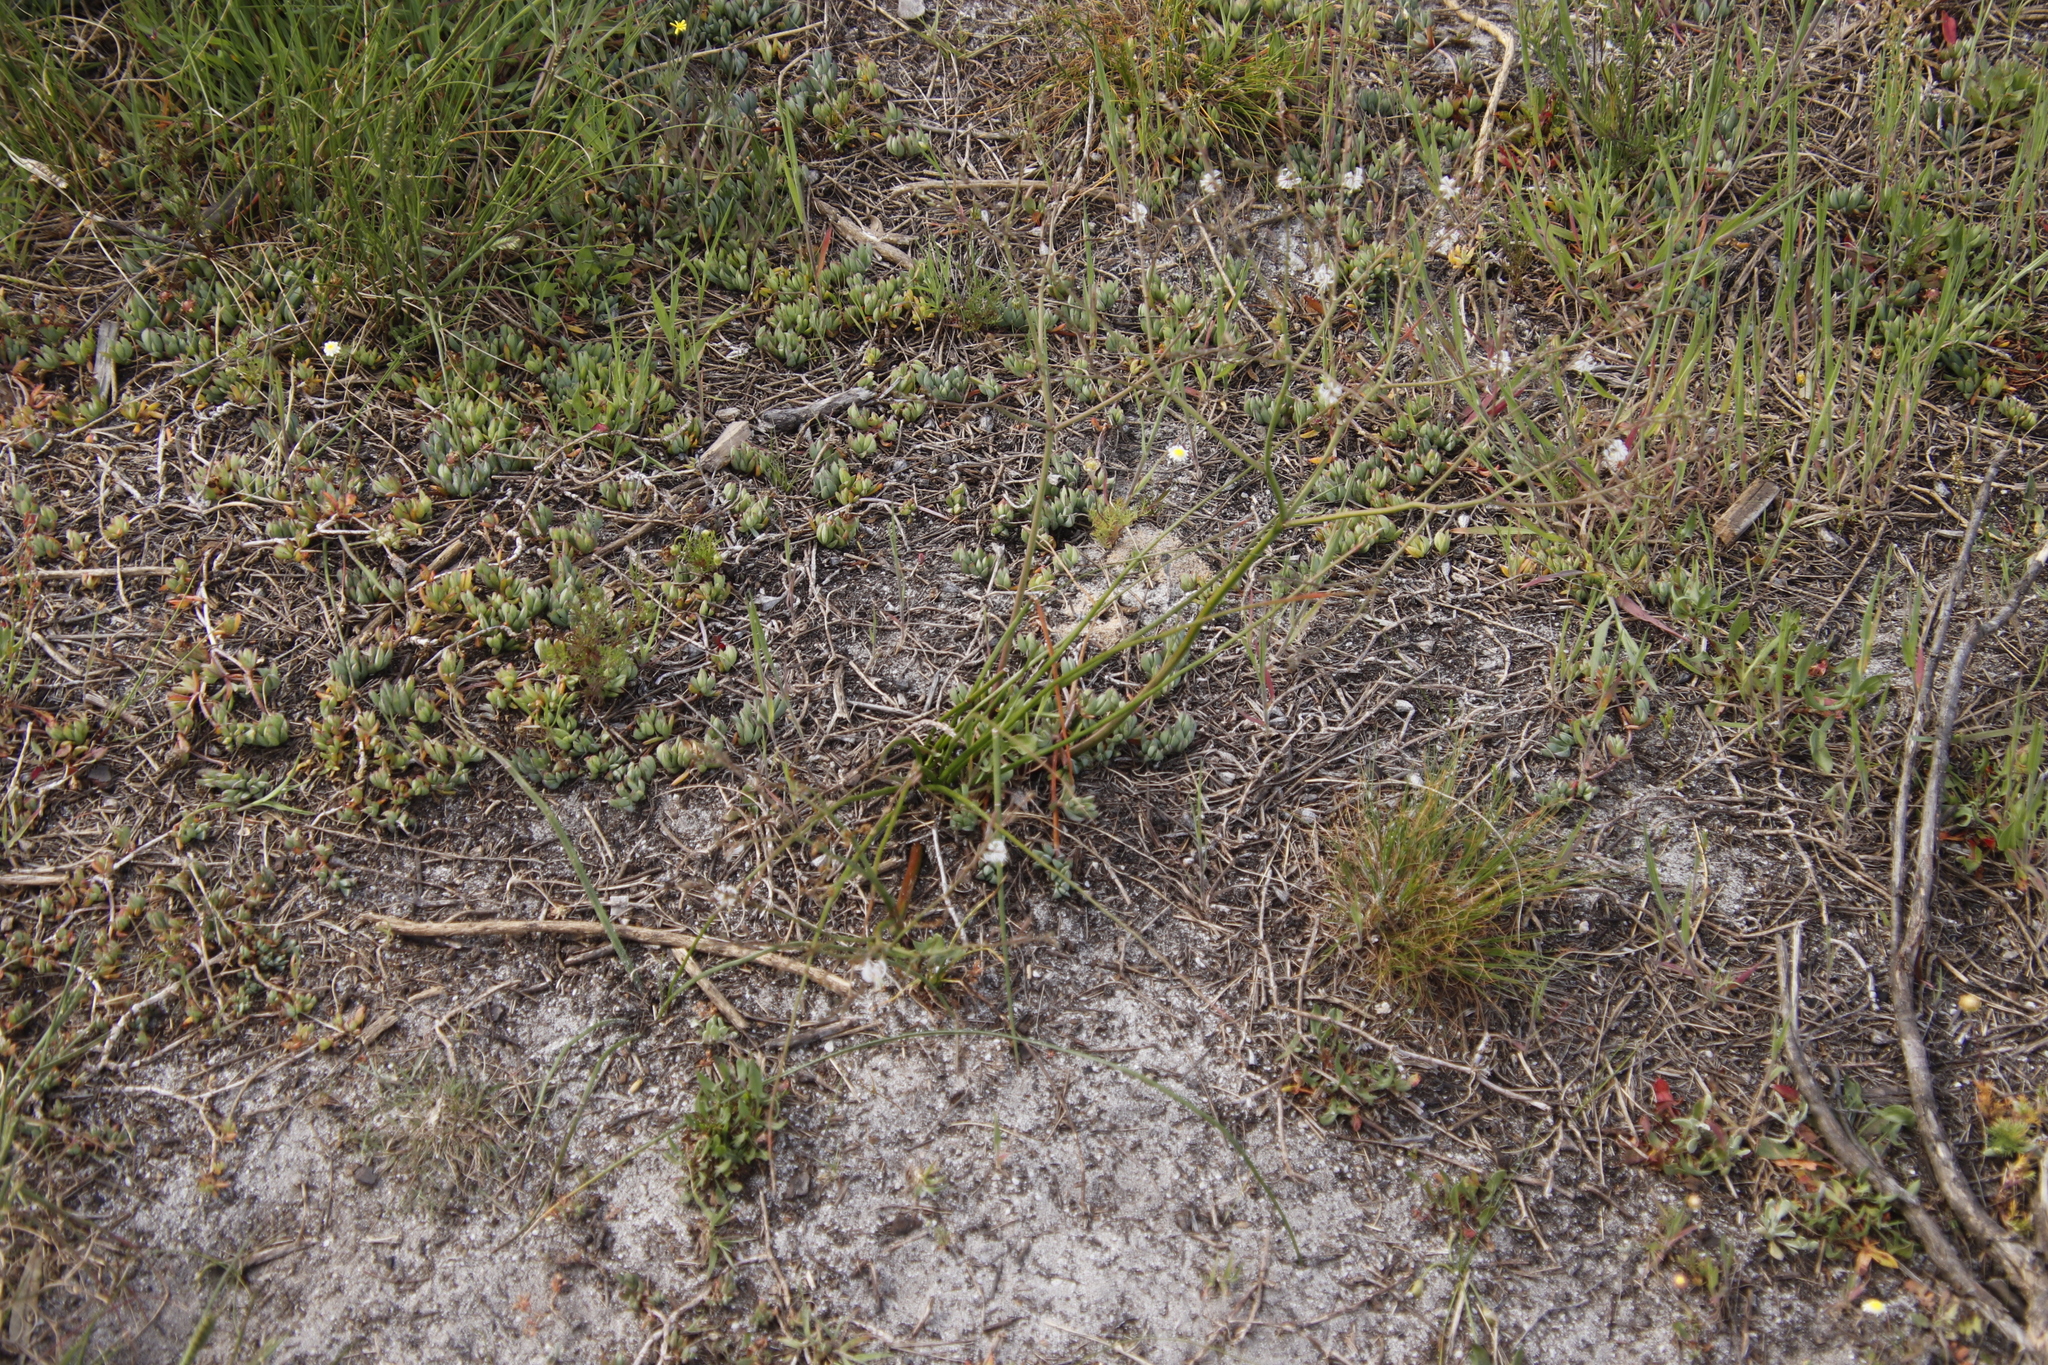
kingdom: Plantae
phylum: Tracheophyta
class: Magnoliopsida
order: Caryophyllales
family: Aizoaceae
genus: Lampranthus
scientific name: Lampranthus reptans
